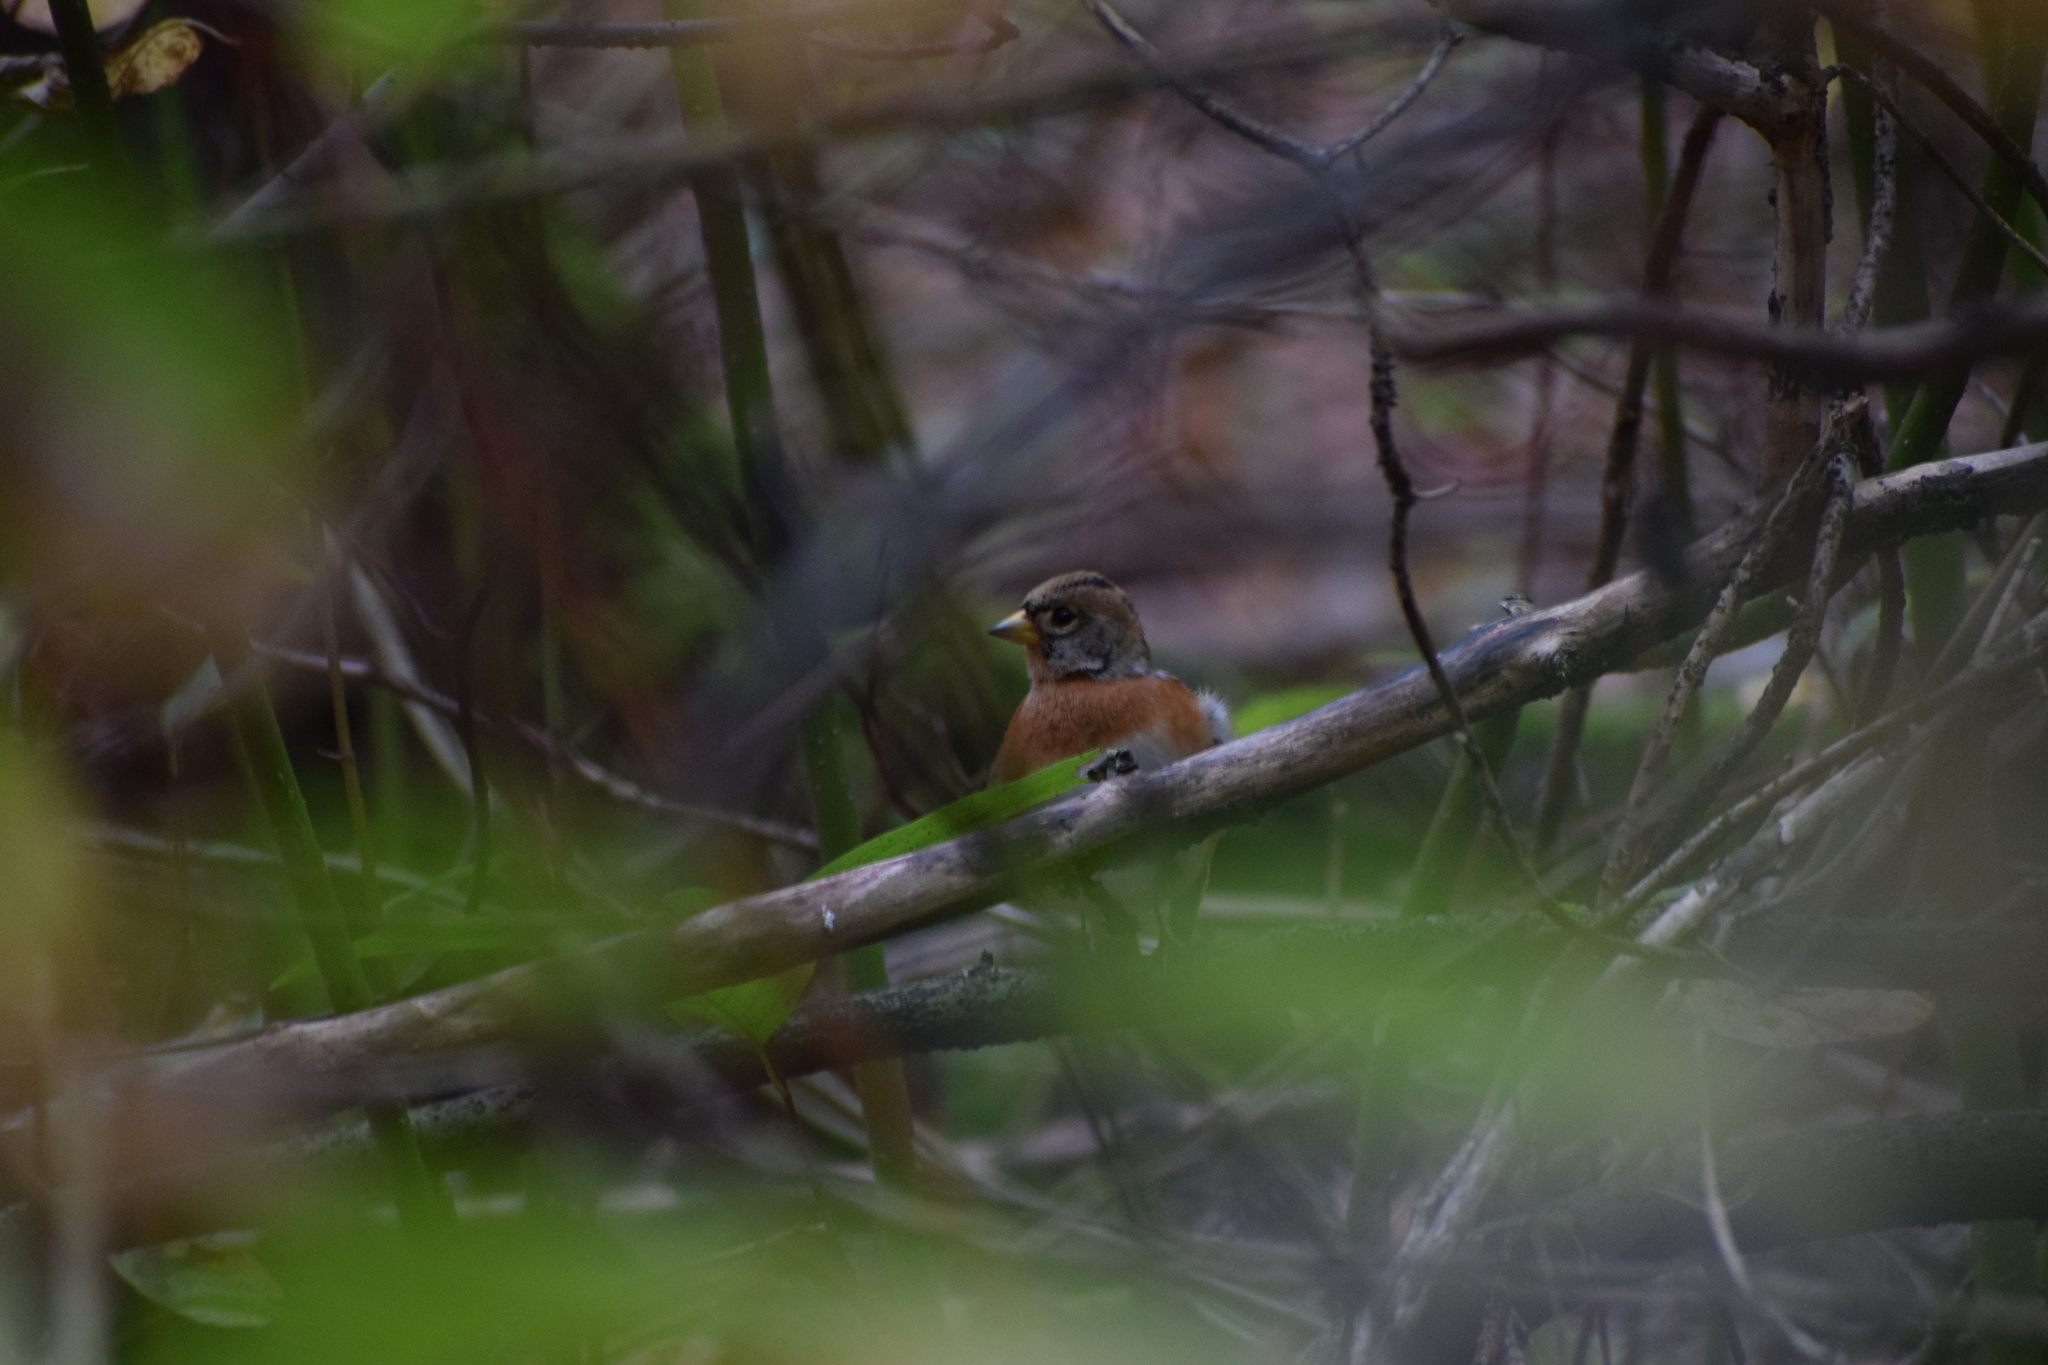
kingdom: Animalia
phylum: Chordata
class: Aves
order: Passeriformes
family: Fringillidae
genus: Fringilla
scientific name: Fringilla montifringilla
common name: Brambling
